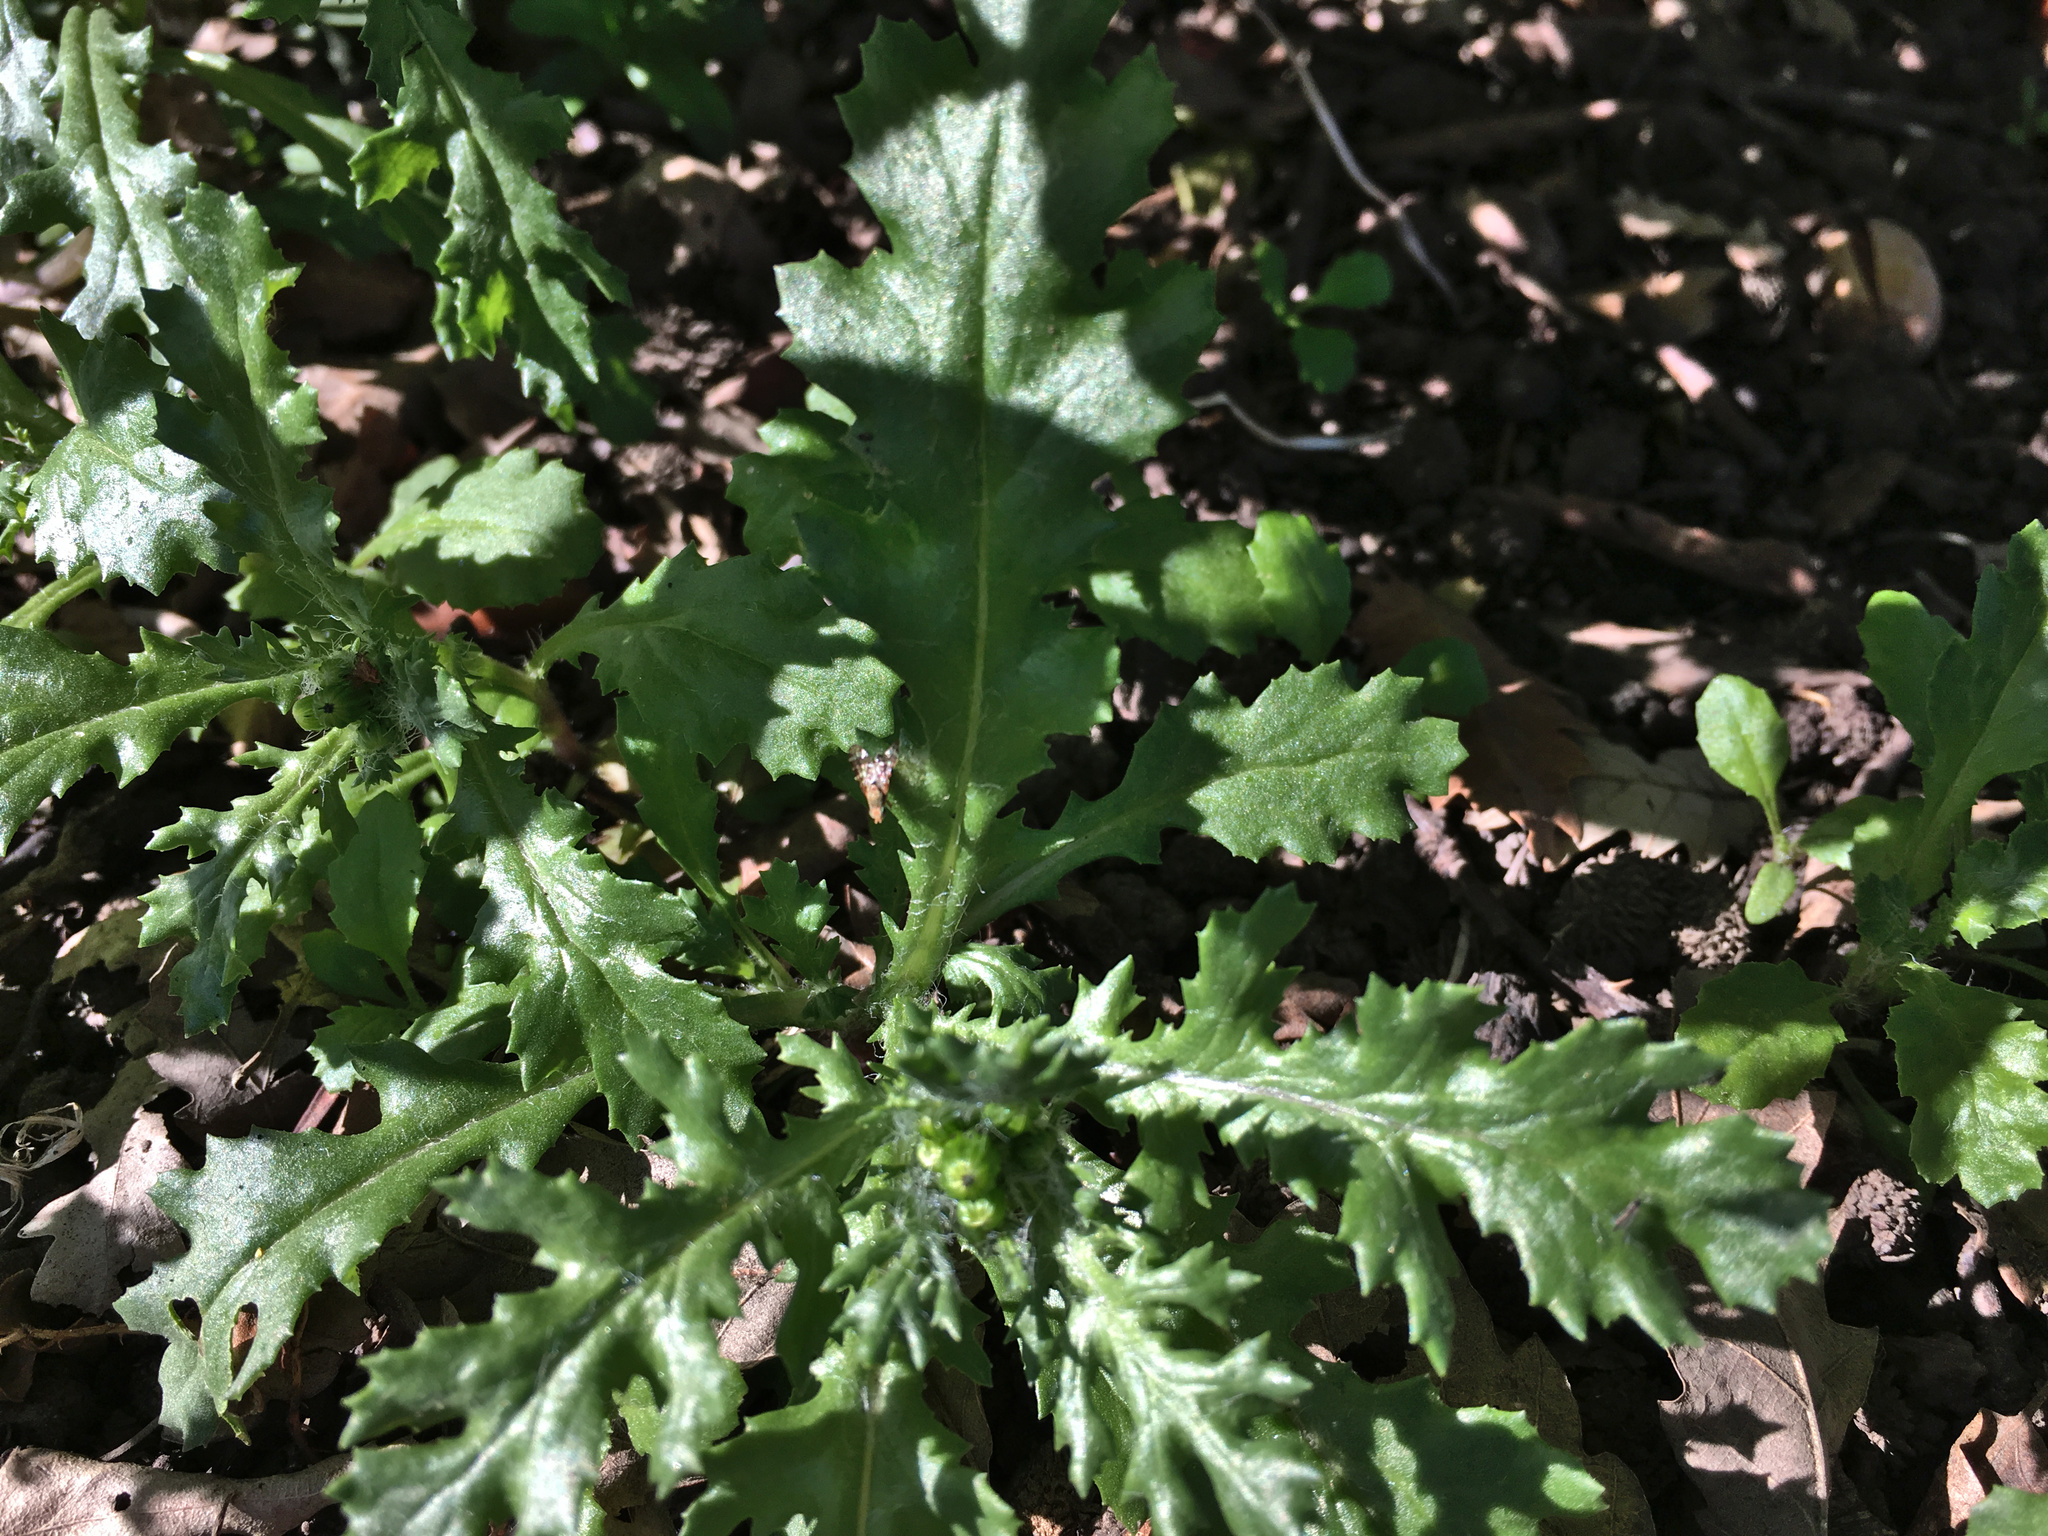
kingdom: Plantae
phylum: Tracheophyta
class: Magnoliopsida
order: Asterales
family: Asteraceae
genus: Senecio
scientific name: Senecio vulgaris
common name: Old-man-in-the-spring
